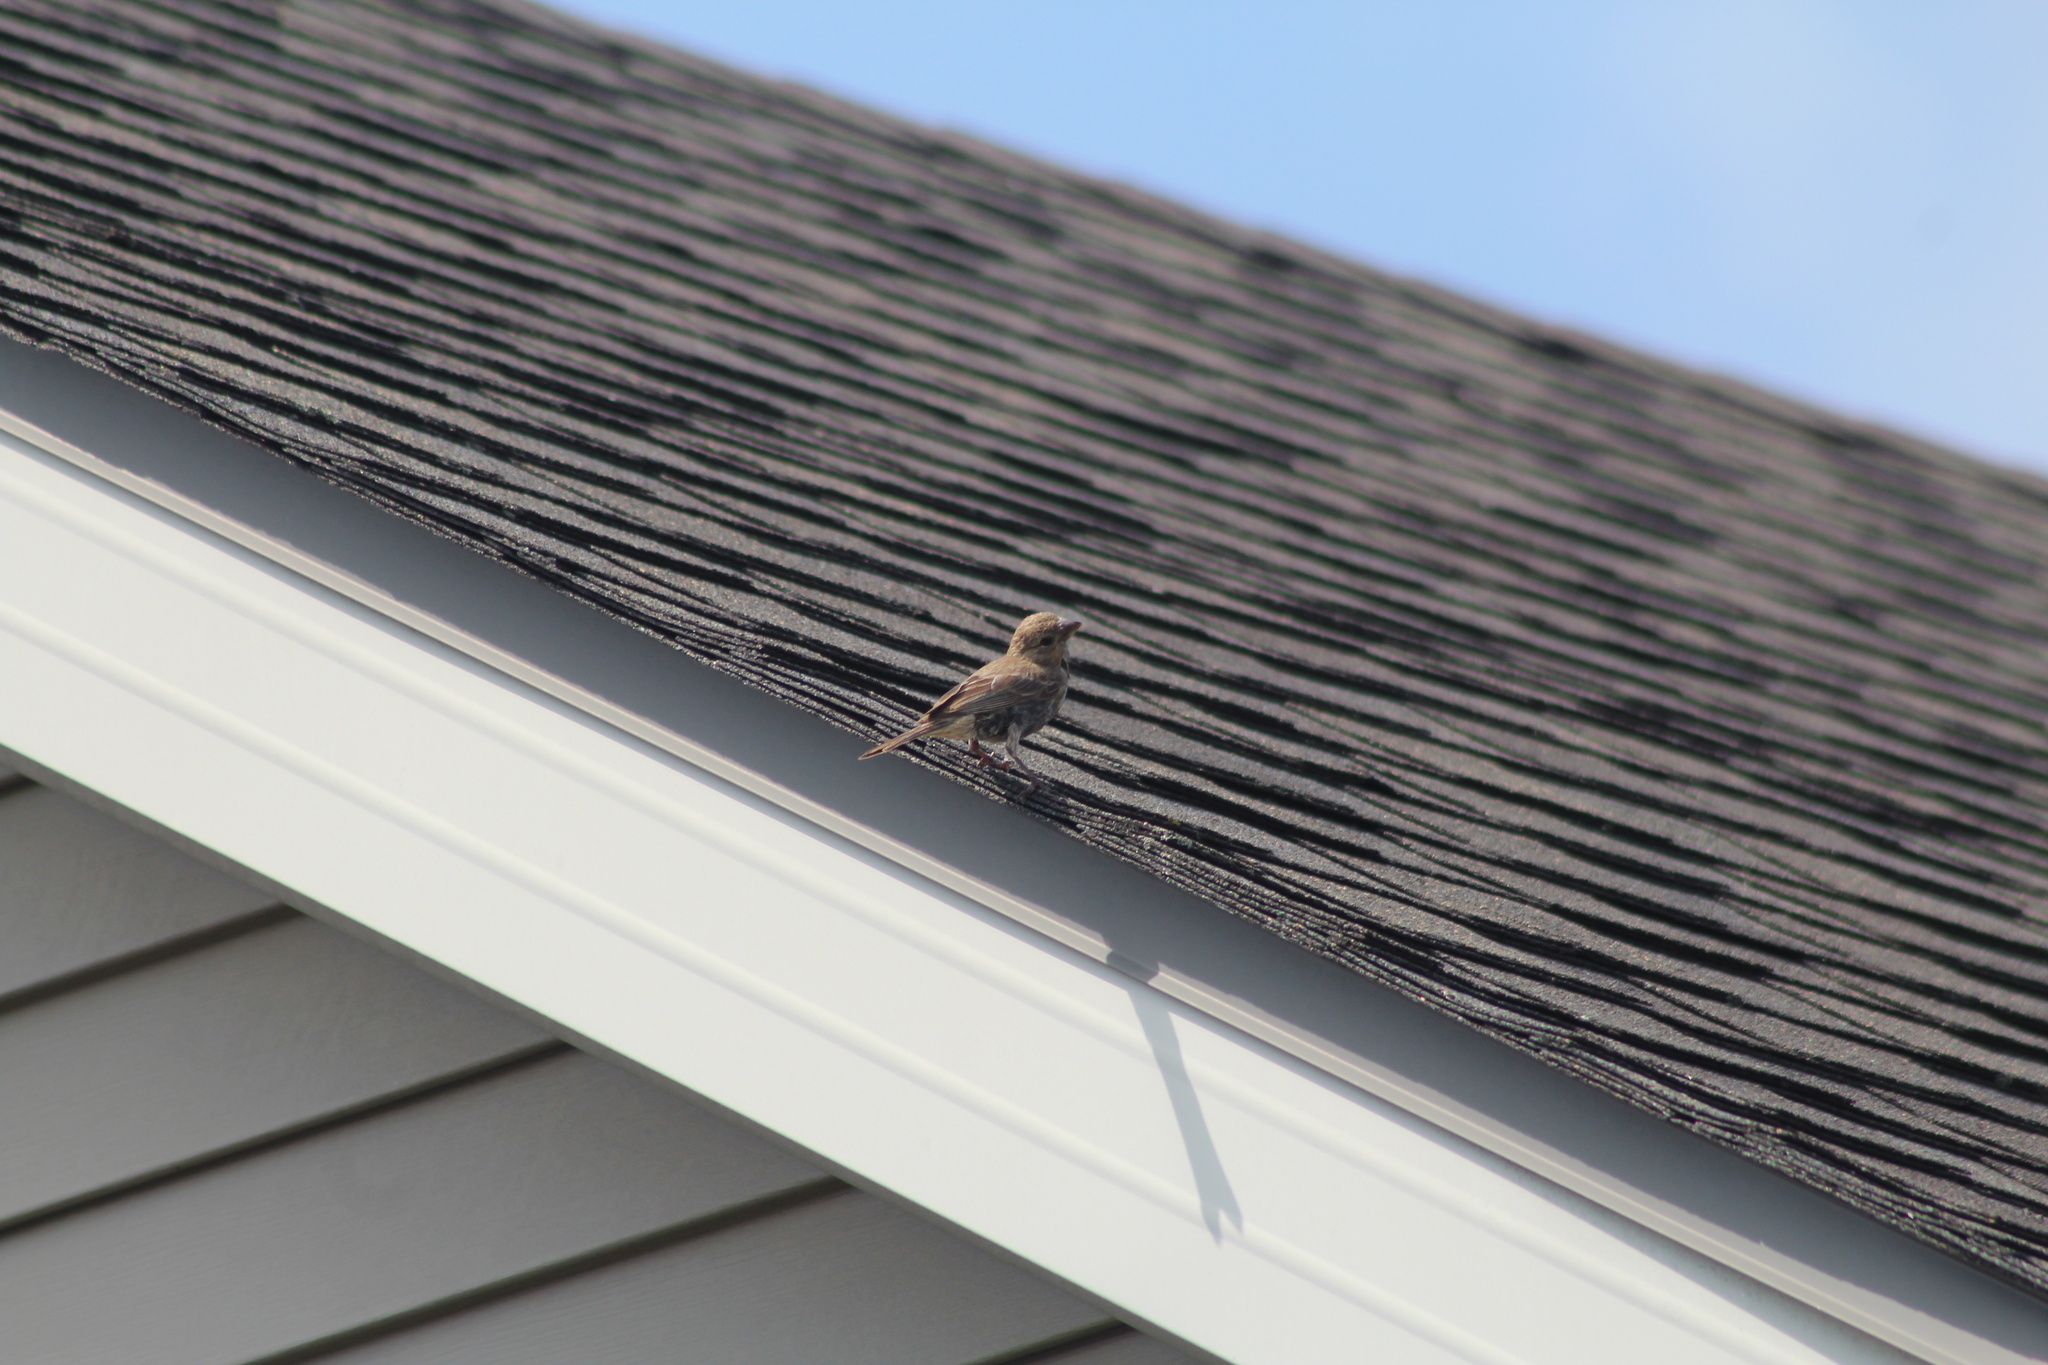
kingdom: Animalia
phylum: Chordata
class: Aves
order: Passeriformes
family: Fringillidae
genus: Haemorhous
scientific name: Haemorhous mexicanus
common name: House finch
